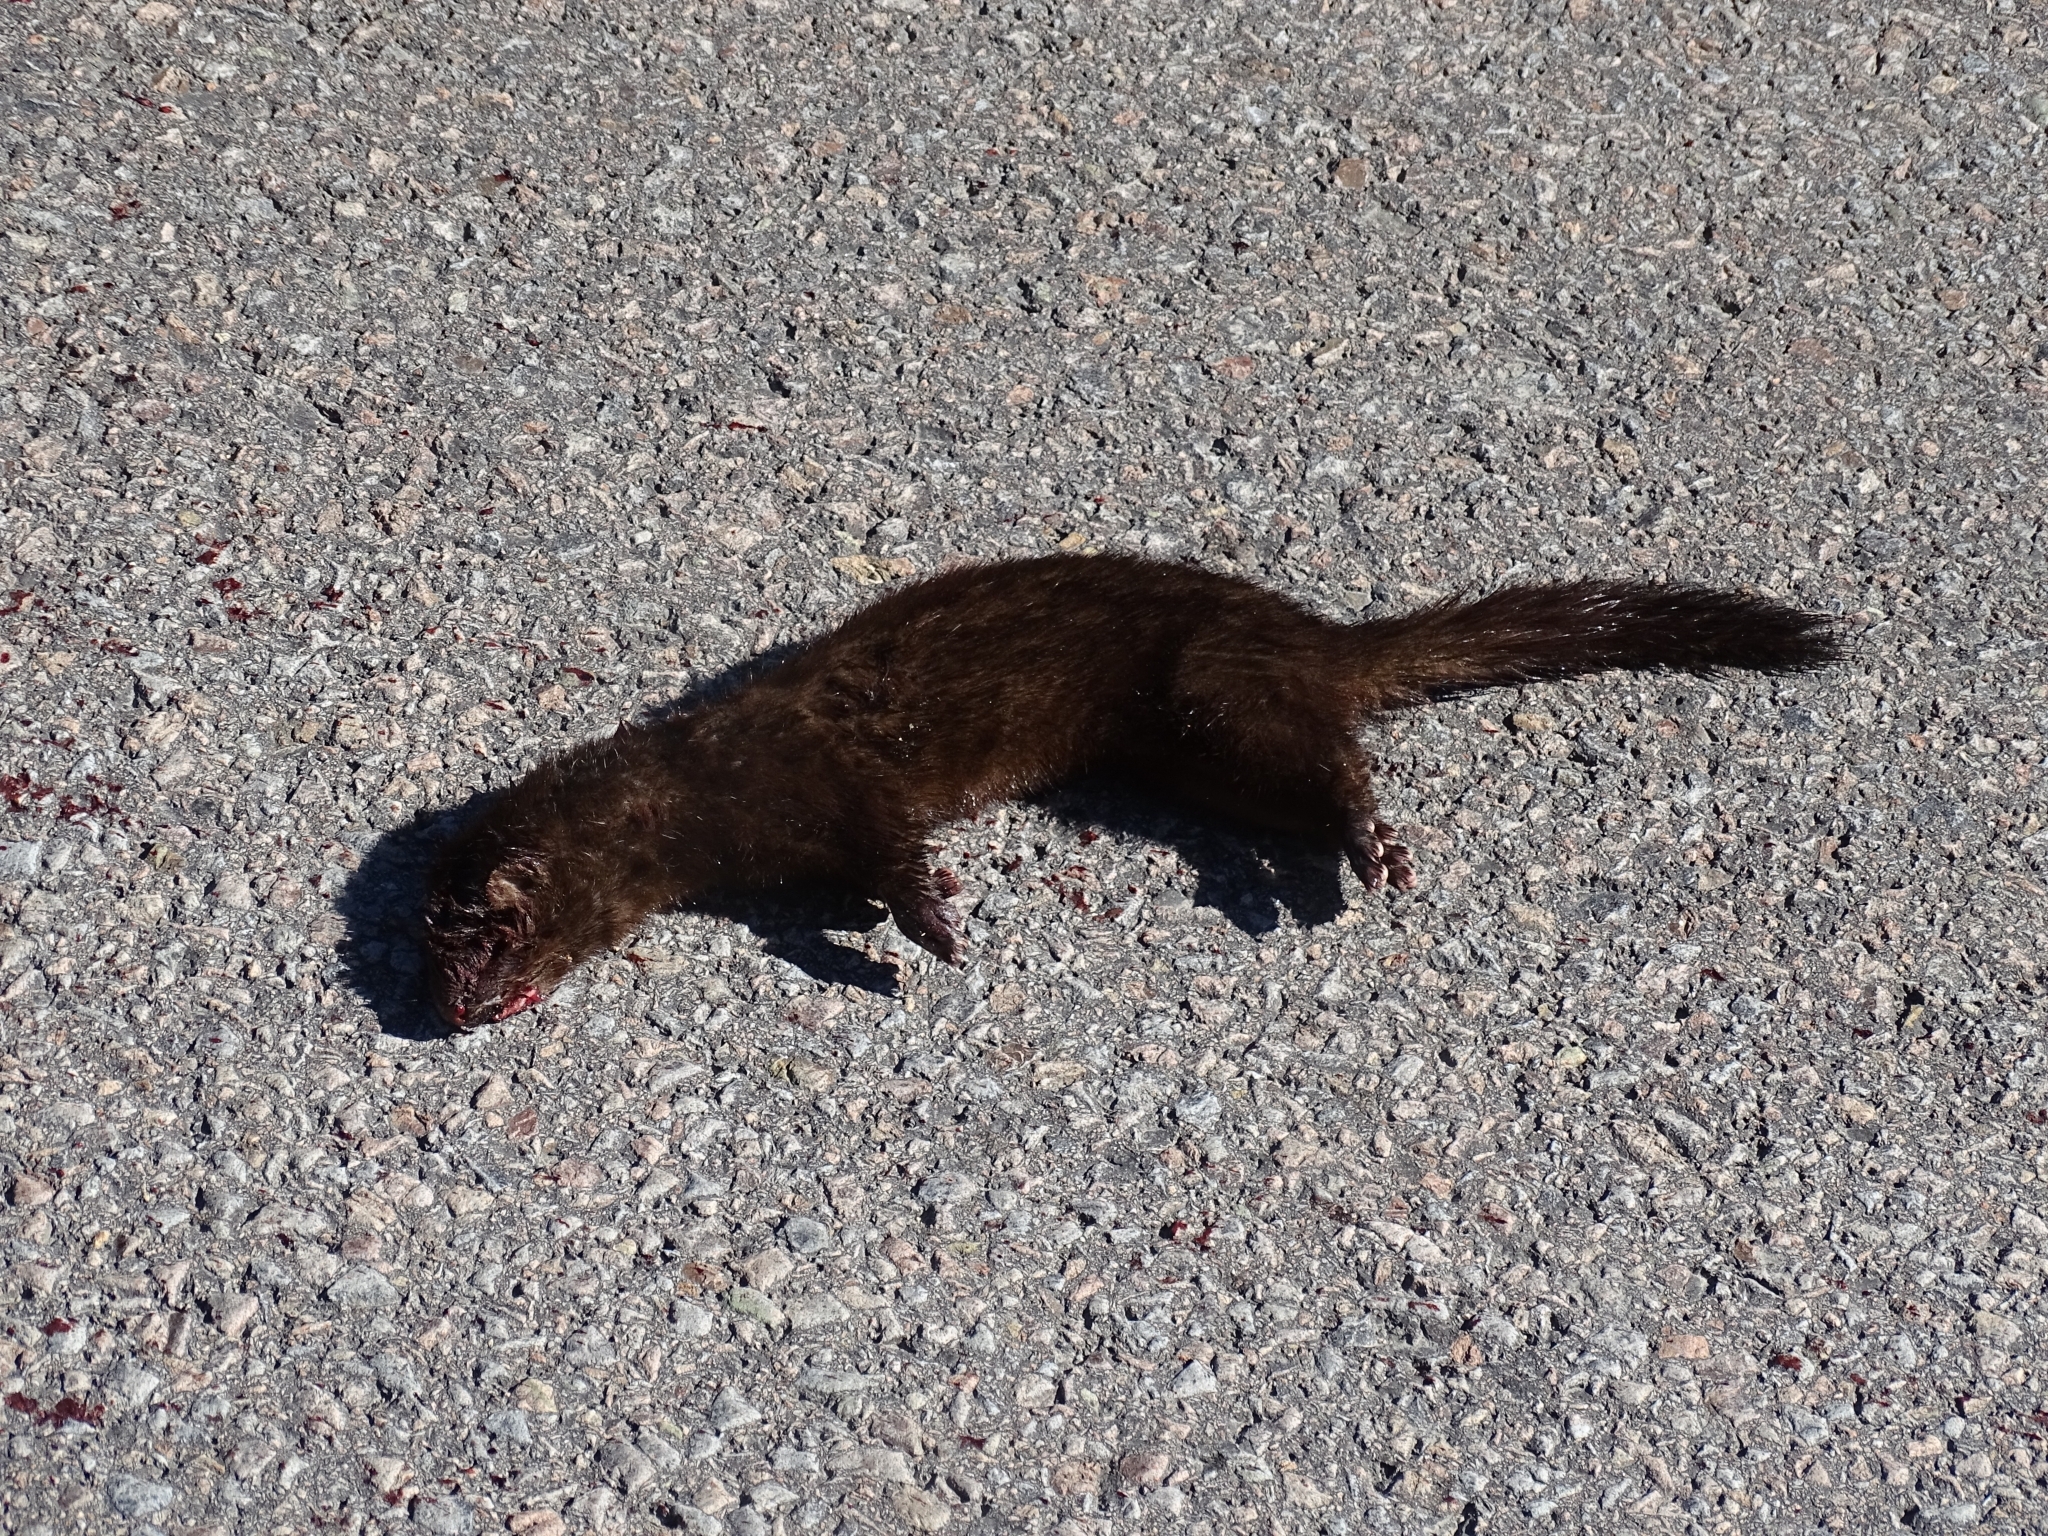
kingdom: Animalia
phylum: Chordata
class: Mammalia
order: Carnivora
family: Mustelidae
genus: Mustela
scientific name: Mustela
